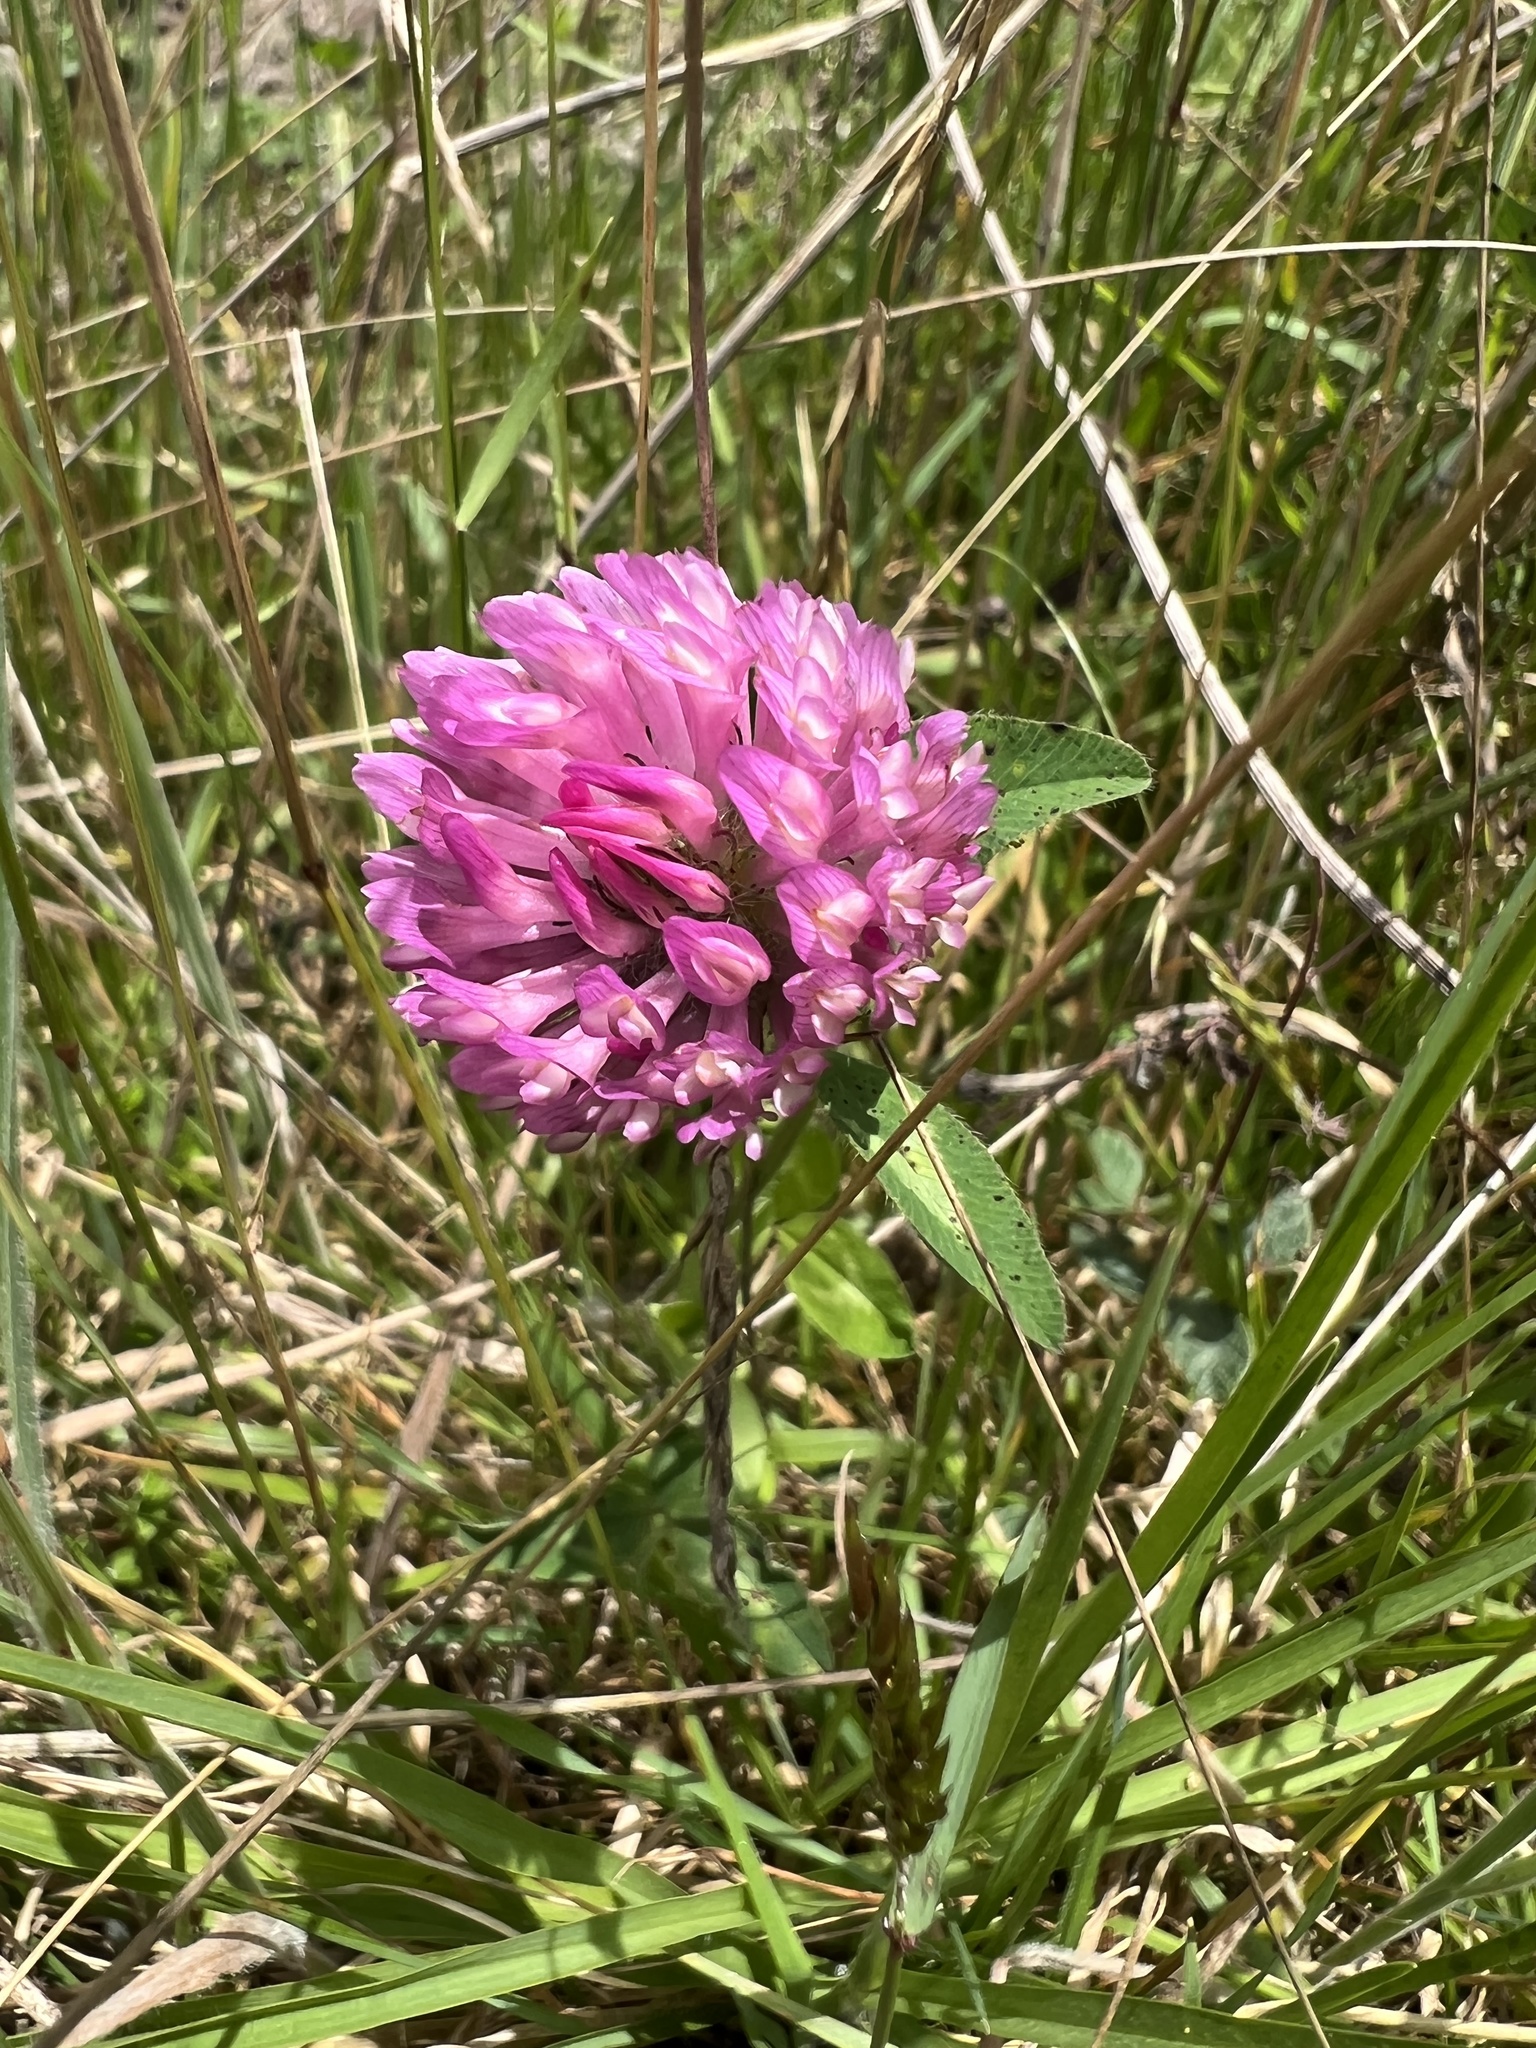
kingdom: Plantae
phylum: Tracheophyta
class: Magnoliopsida
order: Fabales
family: Fabaceae
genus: Trifolium
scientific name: Trifolium pratense
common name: Red clover
